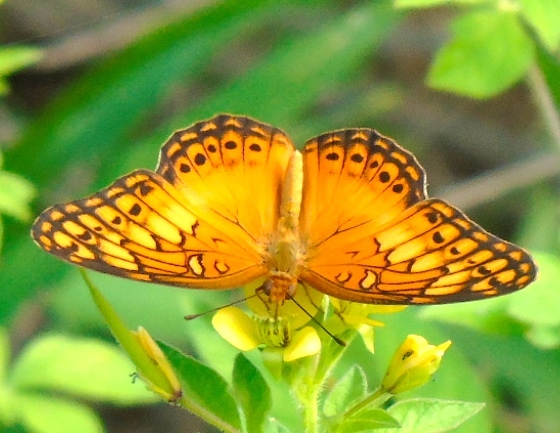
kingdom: Animalia
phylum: Arthropoda
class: Insecta
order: Lepidoptera
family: Nymphalidae
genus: Euptoieta
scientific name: Euptoieta hegesia
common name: Mexican fritillary
